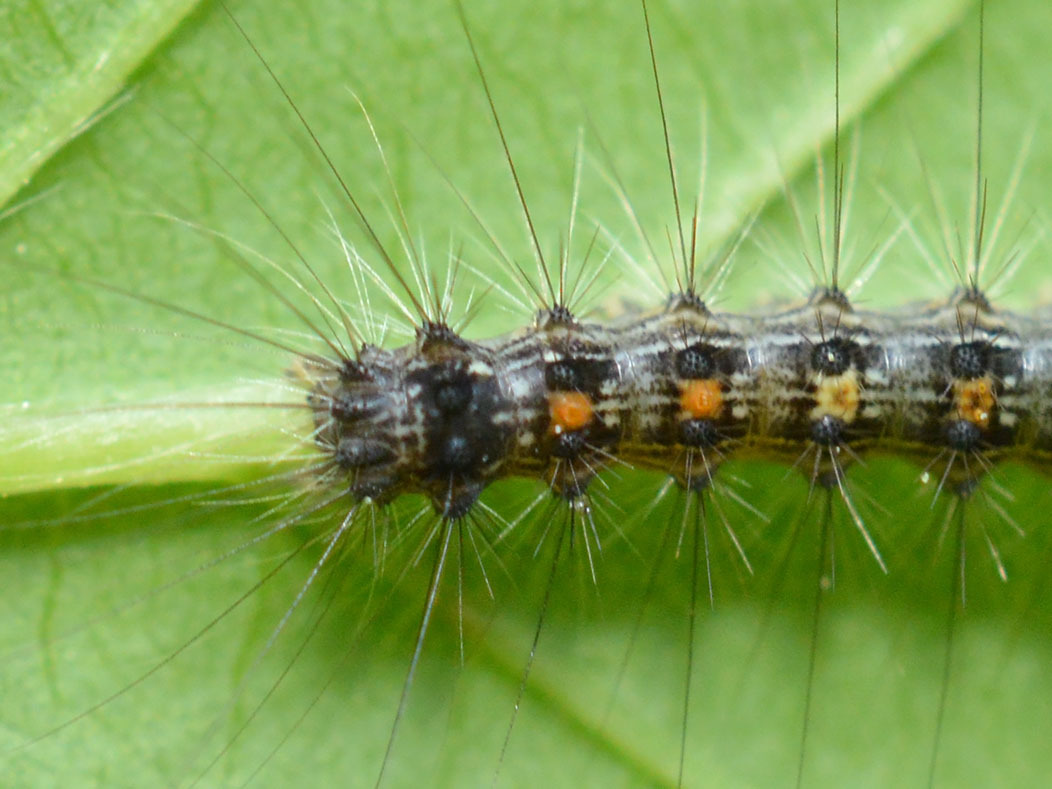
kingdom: Animalia
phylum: Arthropoda
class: Insecta
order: Lepidoptera
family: Erebidae
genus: Lymantria
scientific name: Lymantria dispar
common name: Gypsy moth
